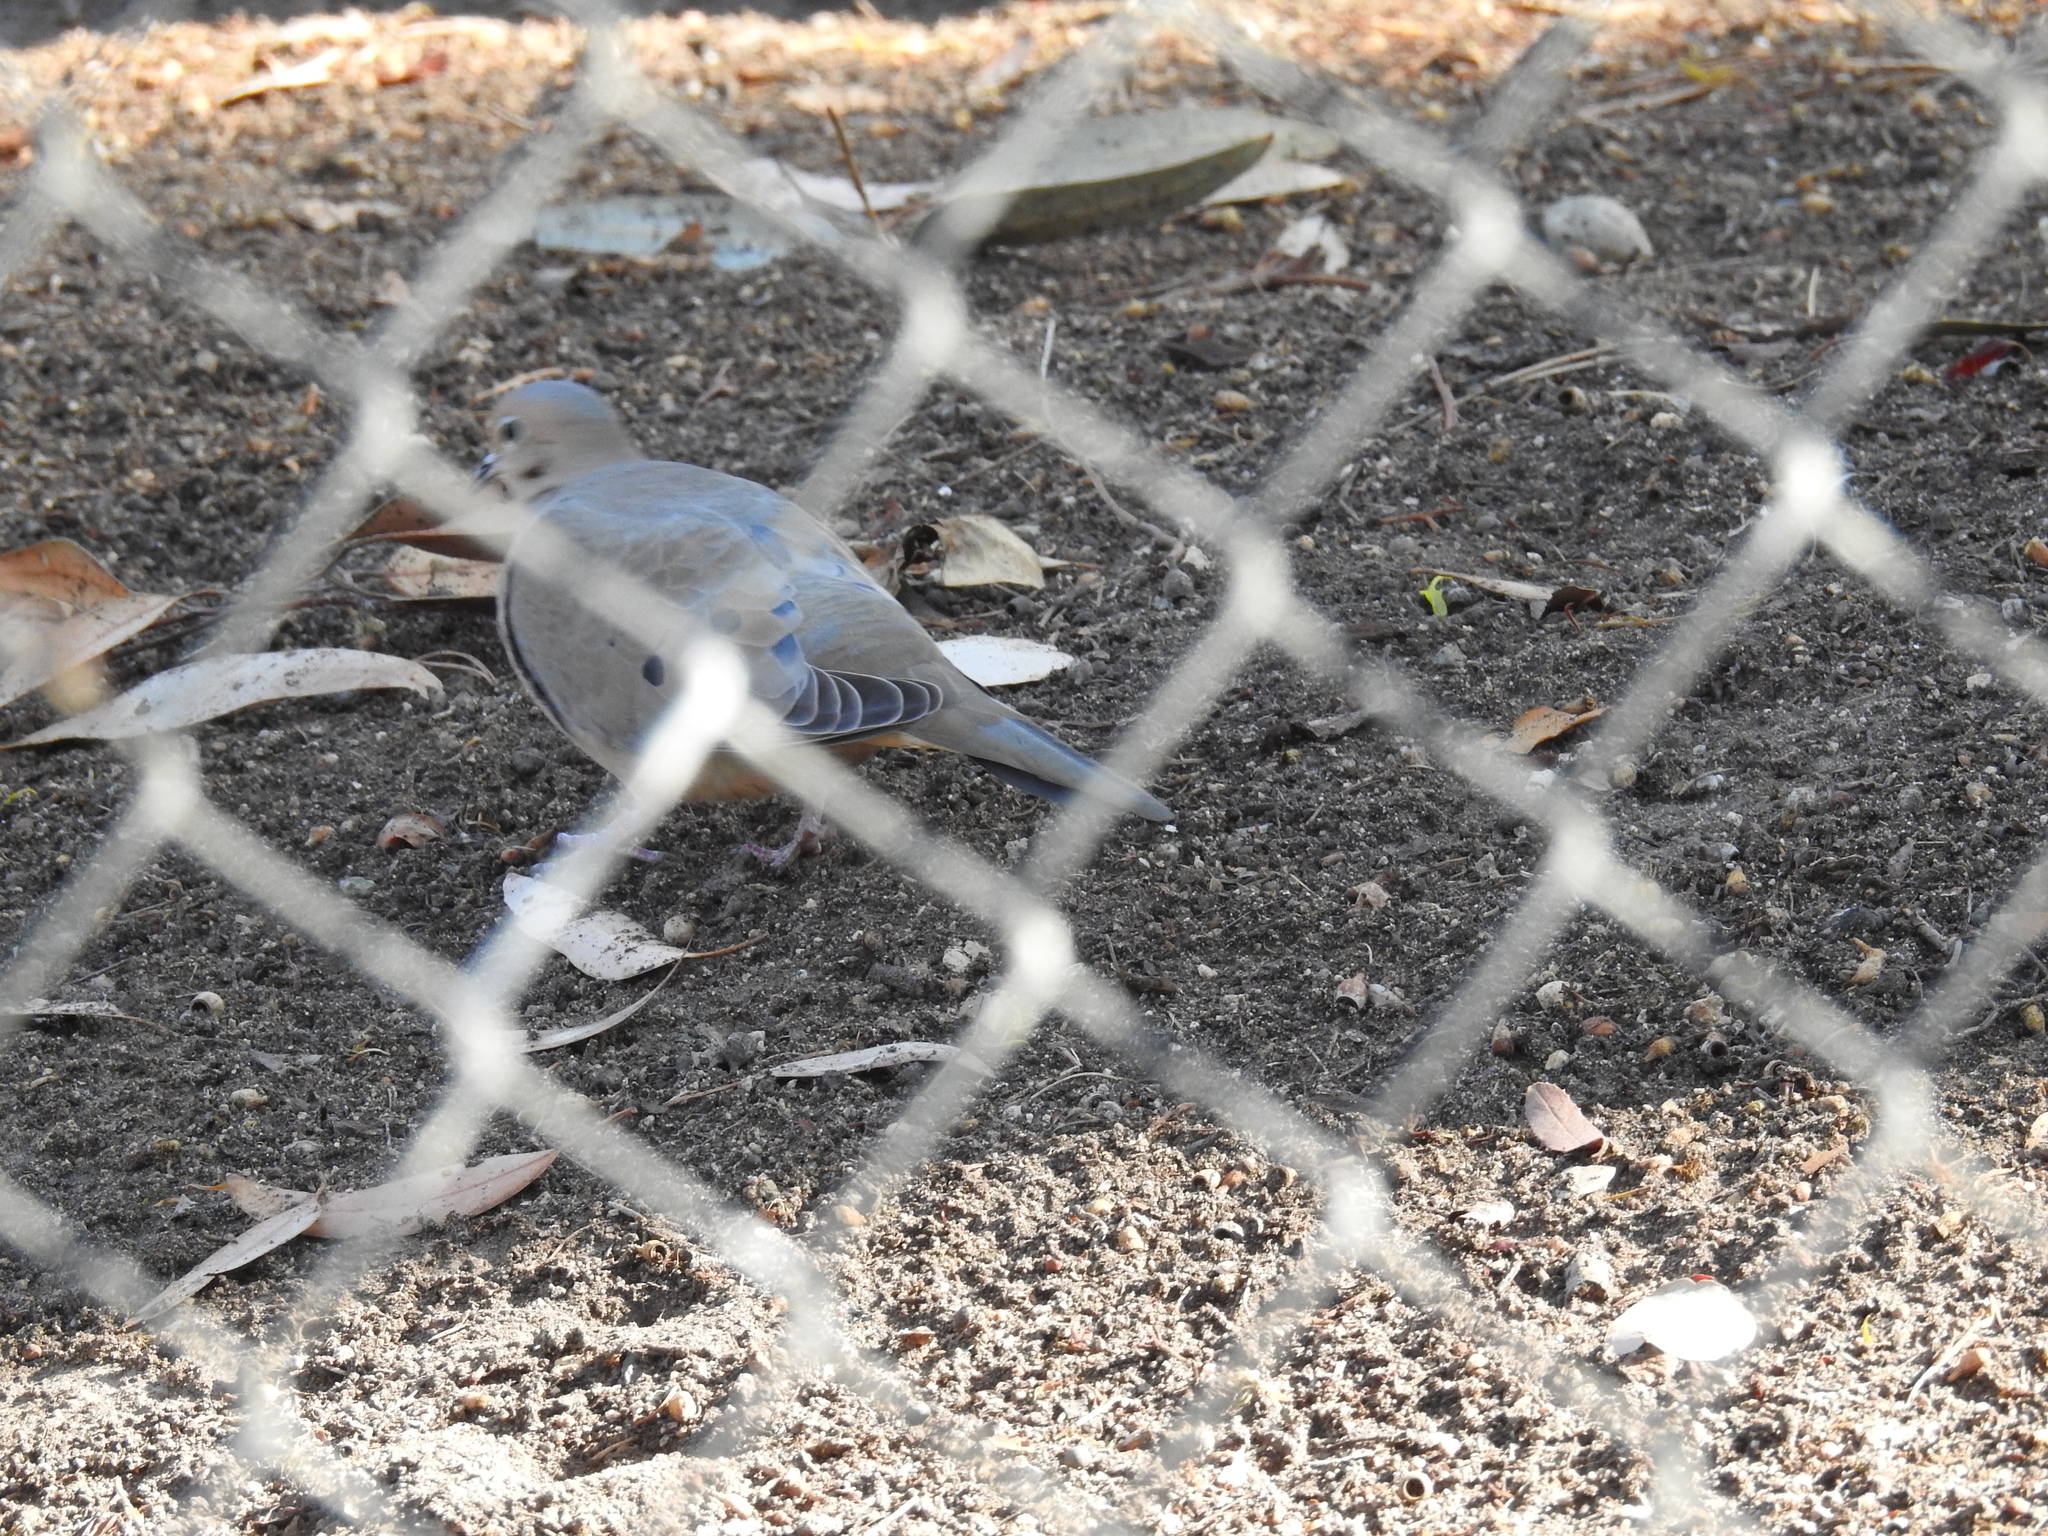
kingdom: Animalia
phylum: Chordata
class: Aves
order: Columbiformes
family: Columbidae
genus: Zenaida
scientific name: Zenaida macroura
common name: Mourning dove
